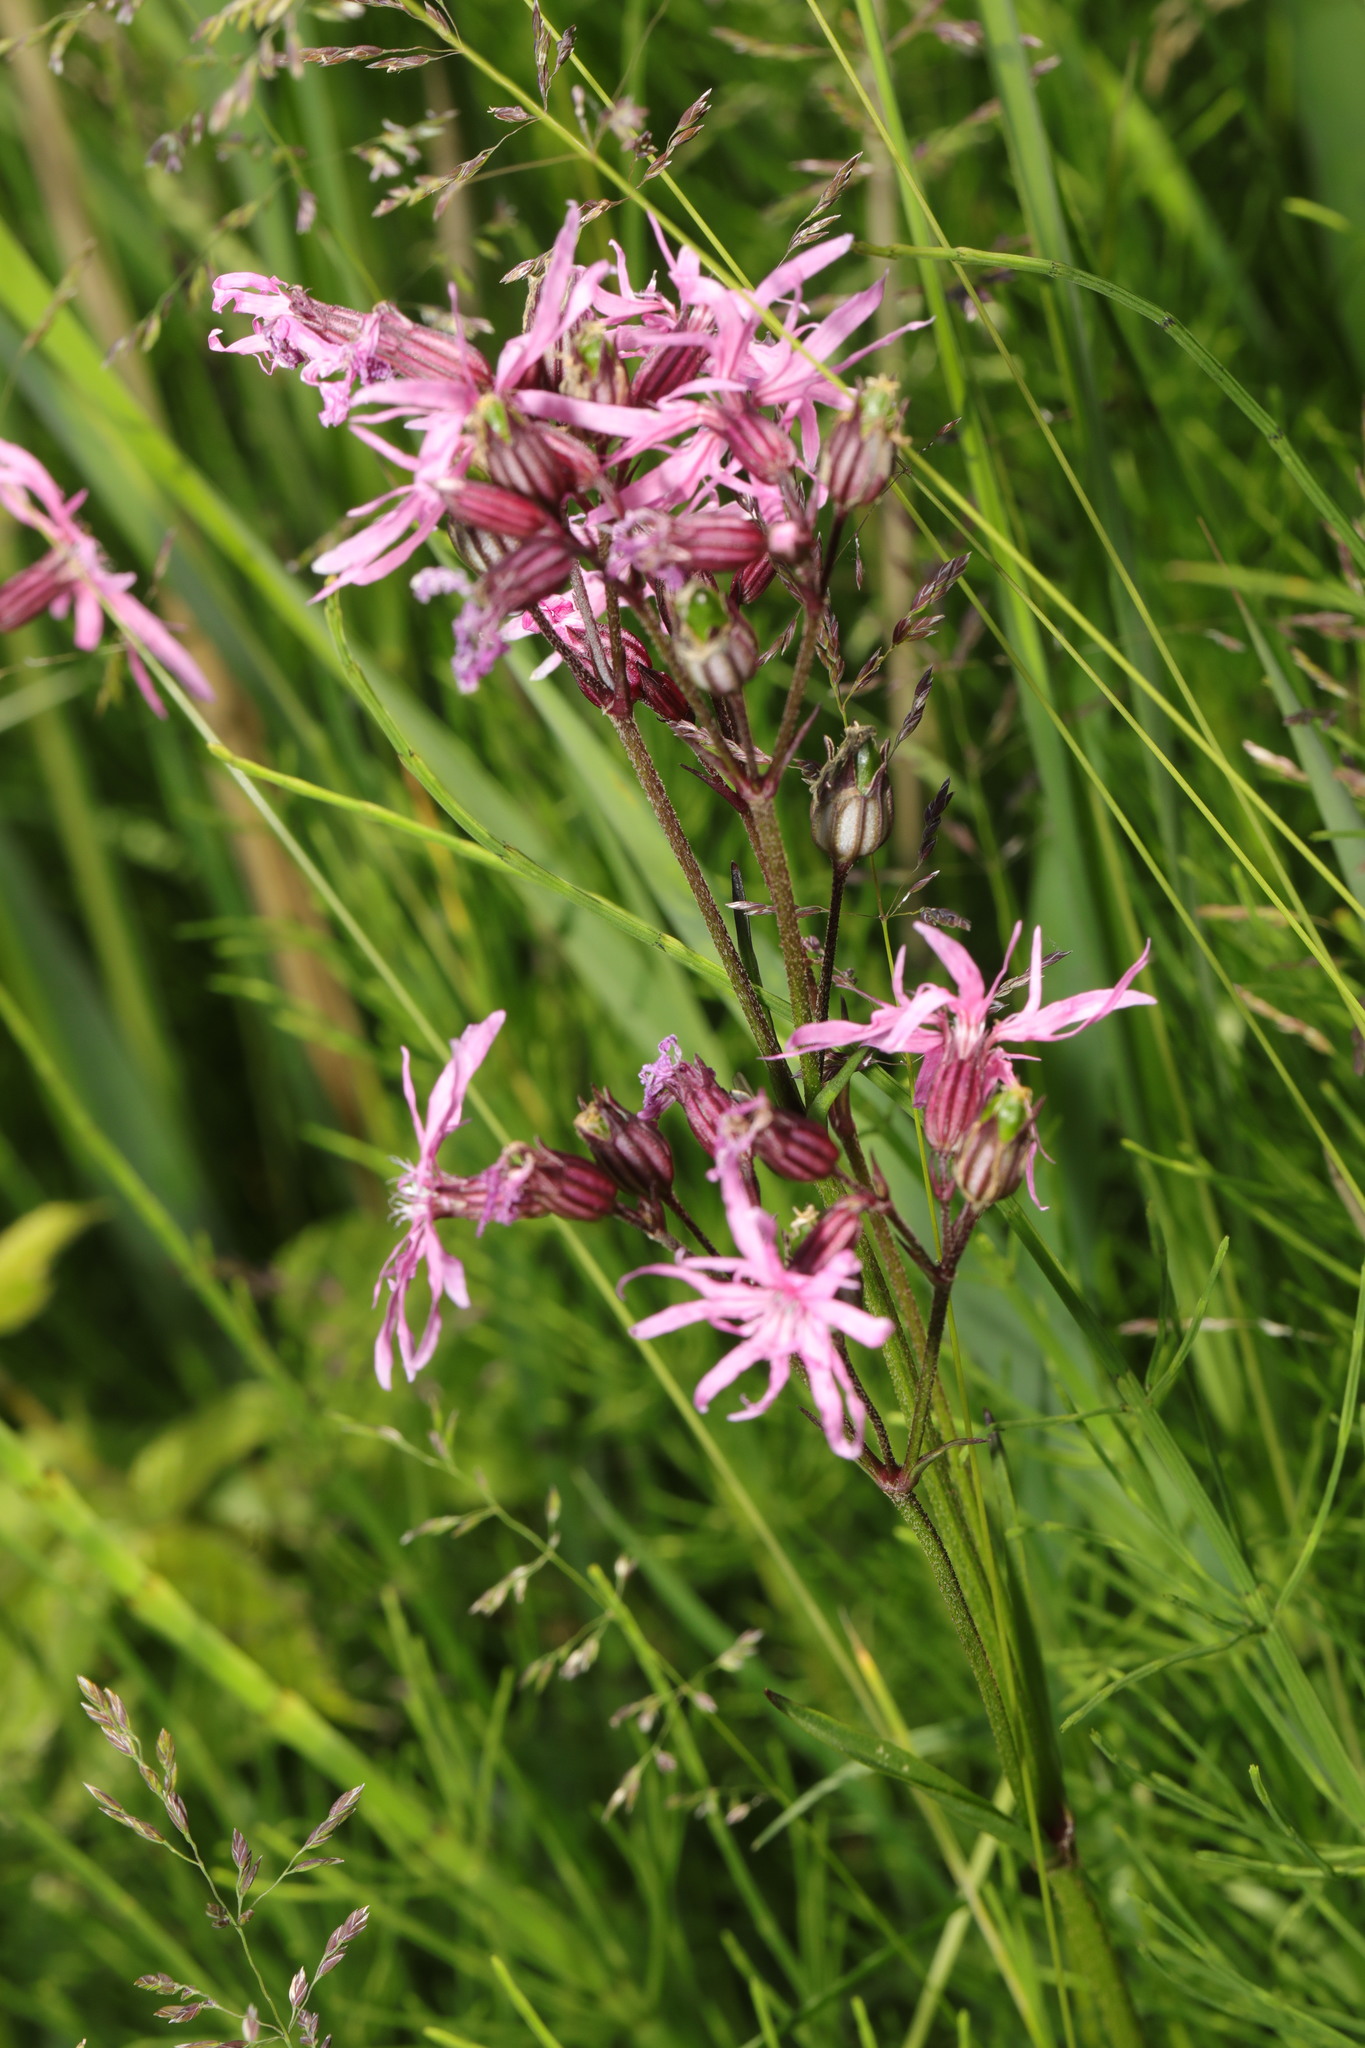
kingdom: Plantae
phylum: Tracheophyta
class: Magnoliopsida
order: Caryophyllales
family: Caryophyllaceae
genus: Silene
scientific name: Silene flos-cuculi
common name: Ragged-robin
